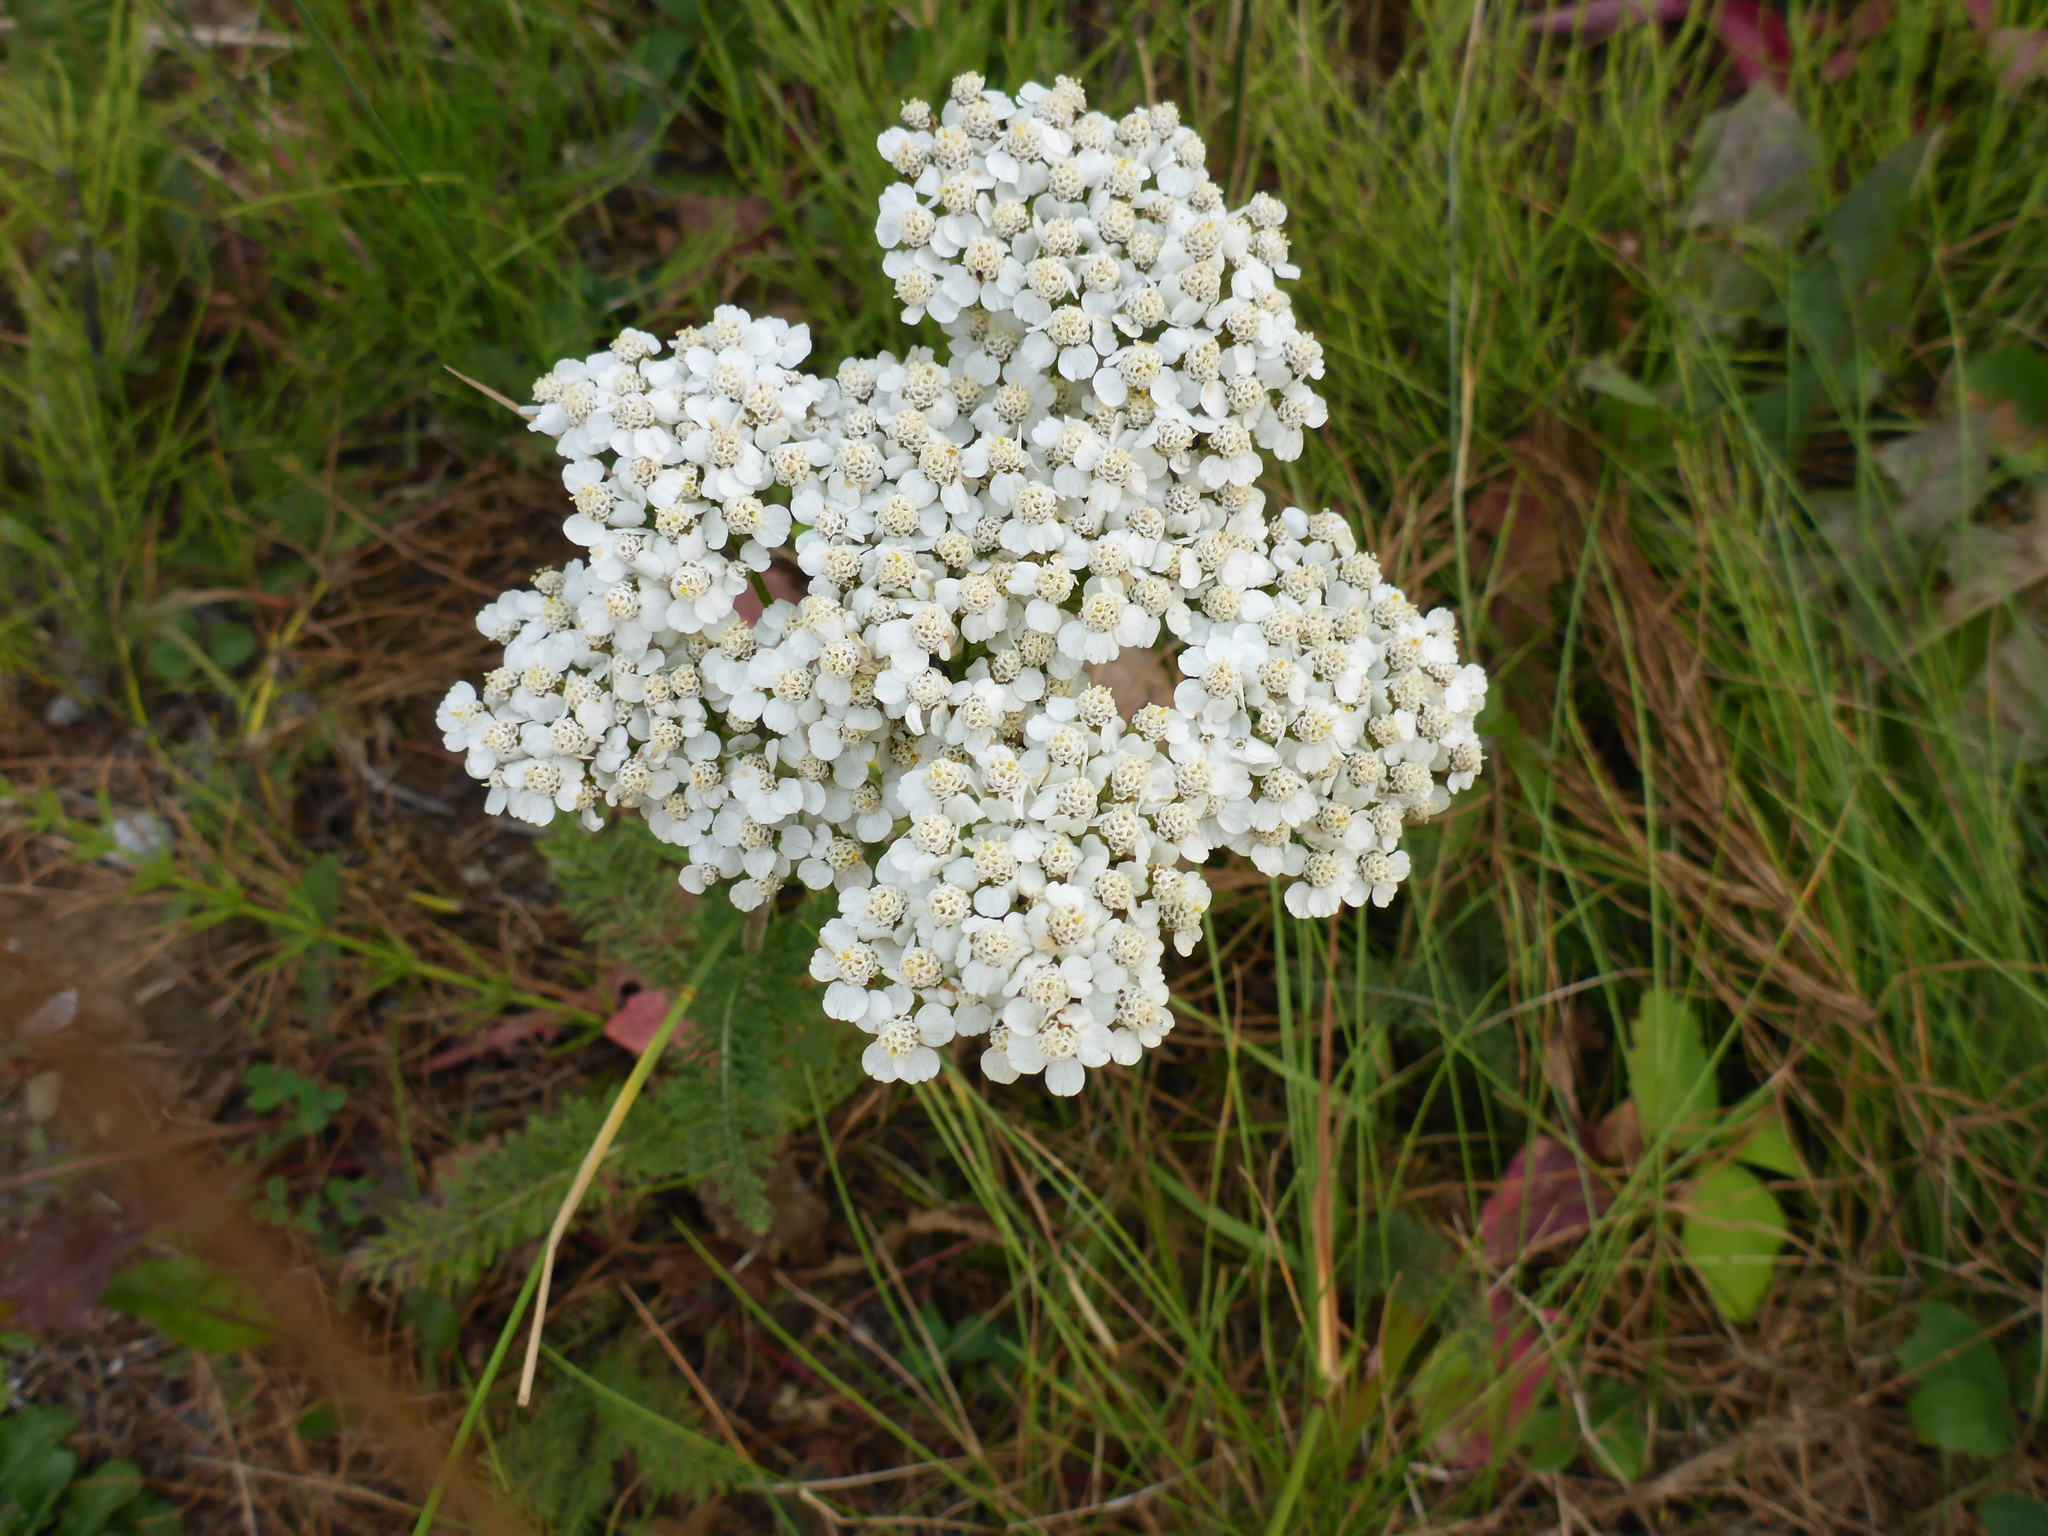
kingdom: Plantae
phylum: Tracheophyta
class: Magnoliopsida
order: Asterales
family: Asteraceae
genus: Achillea
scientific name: Achillea millefolium
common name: Yarrow
